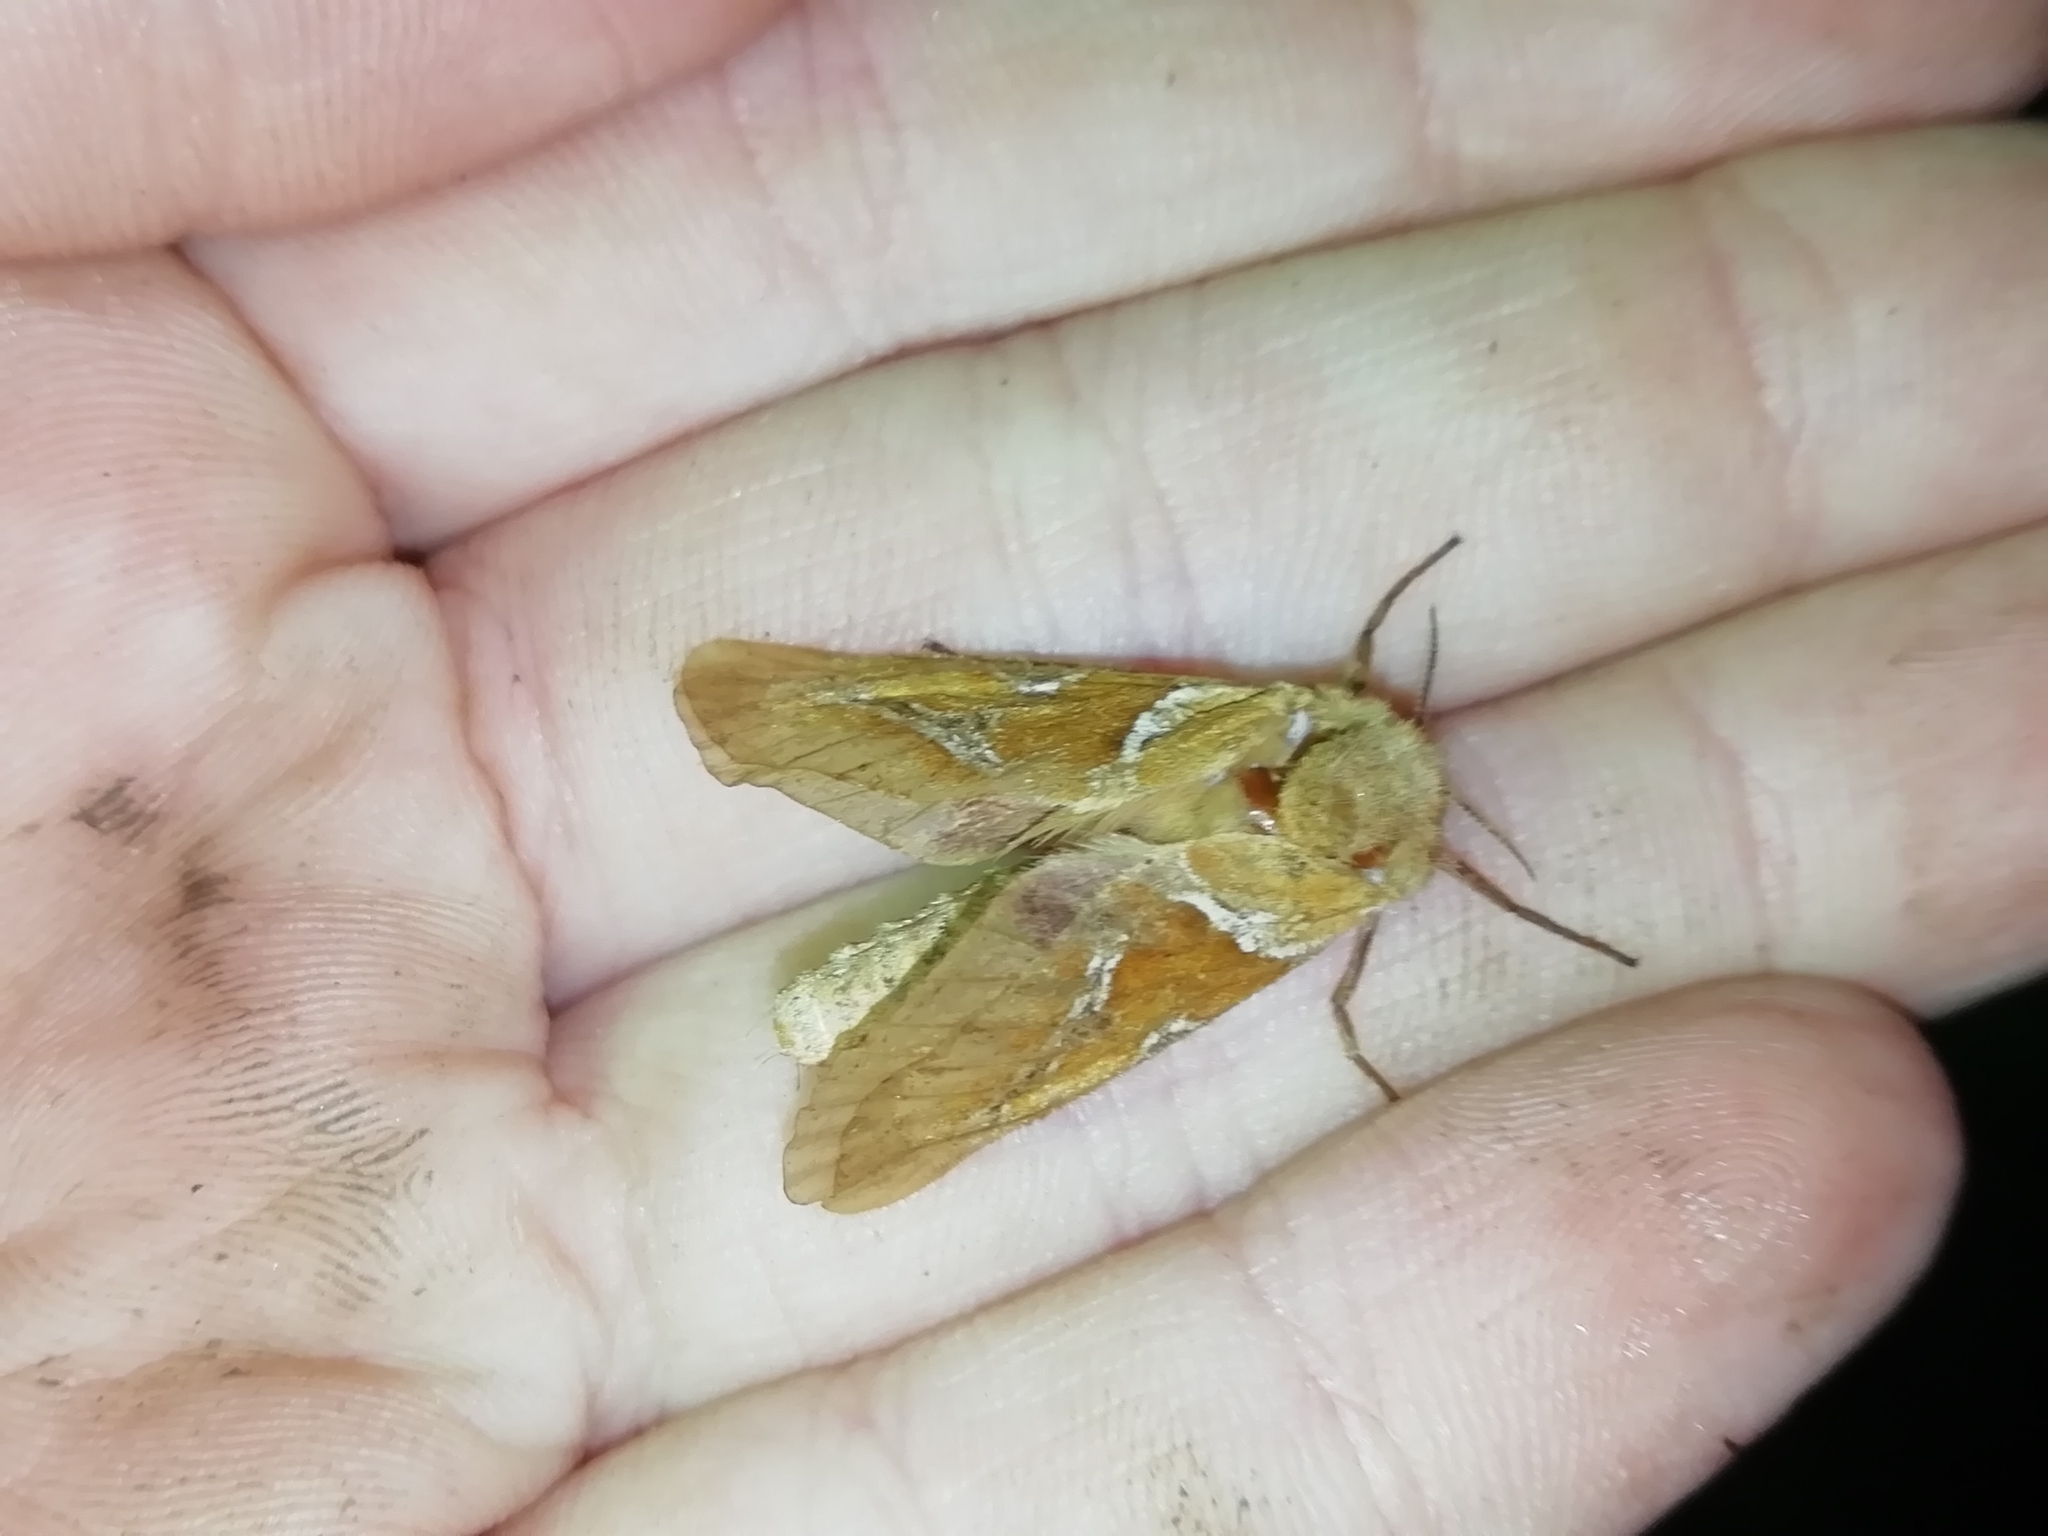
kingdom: Animalia
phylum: Arthropoda
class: Insecta
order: Lepidoptera
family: Hepialidae
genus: Triodia
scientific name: Triodia sylvina
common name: Orange swift
